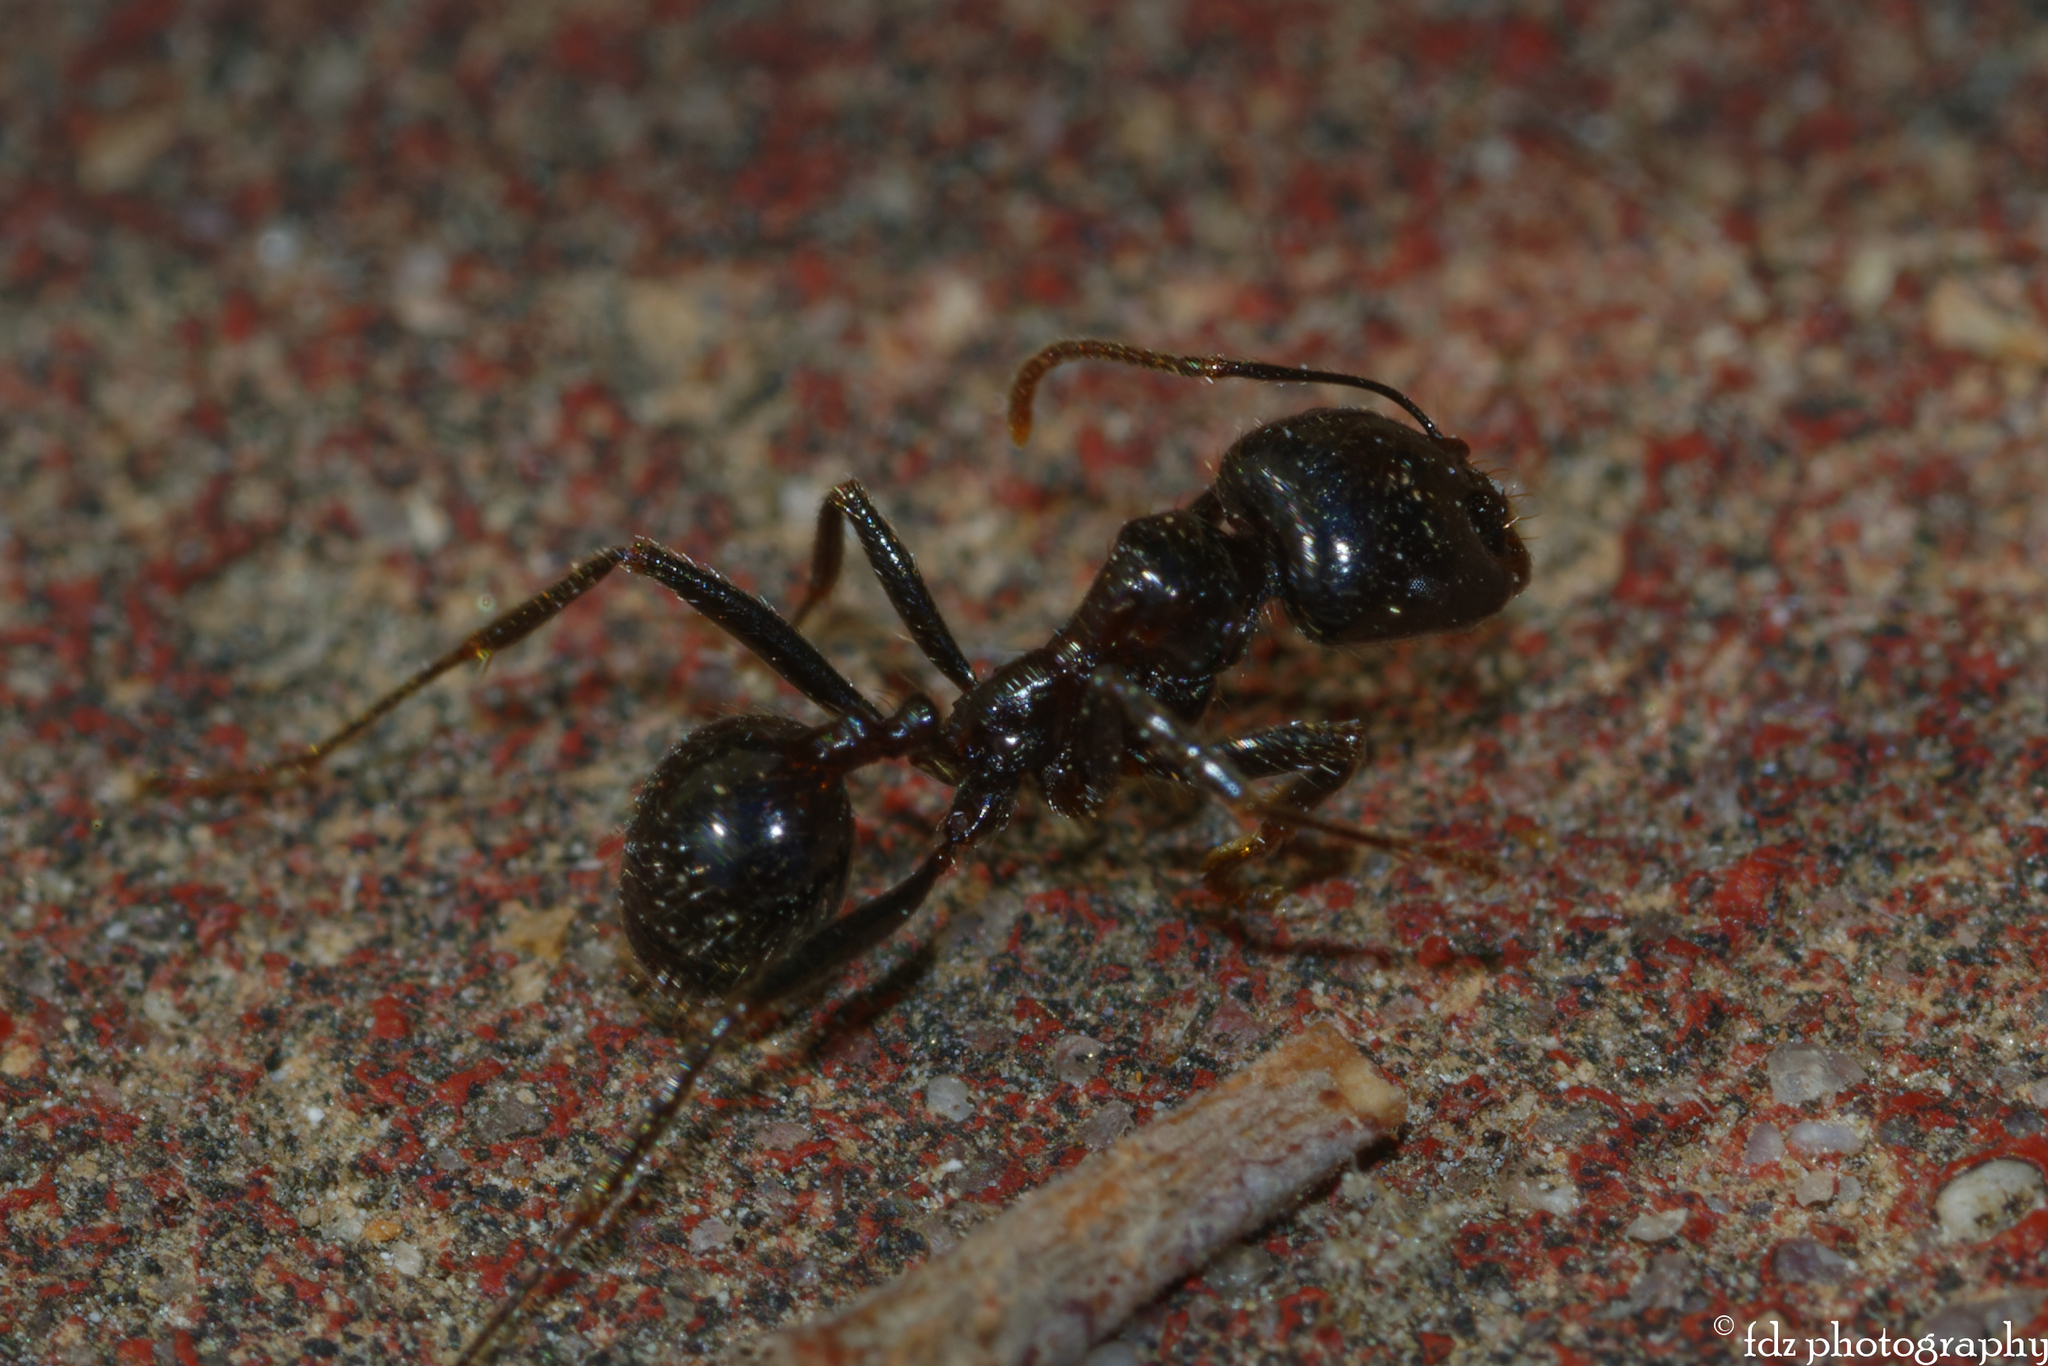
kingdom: Animalia
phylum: Arthropoda
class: Insecta
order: Hymenoptera
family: Formicidae
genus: Messor
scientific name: Messor barbarus
